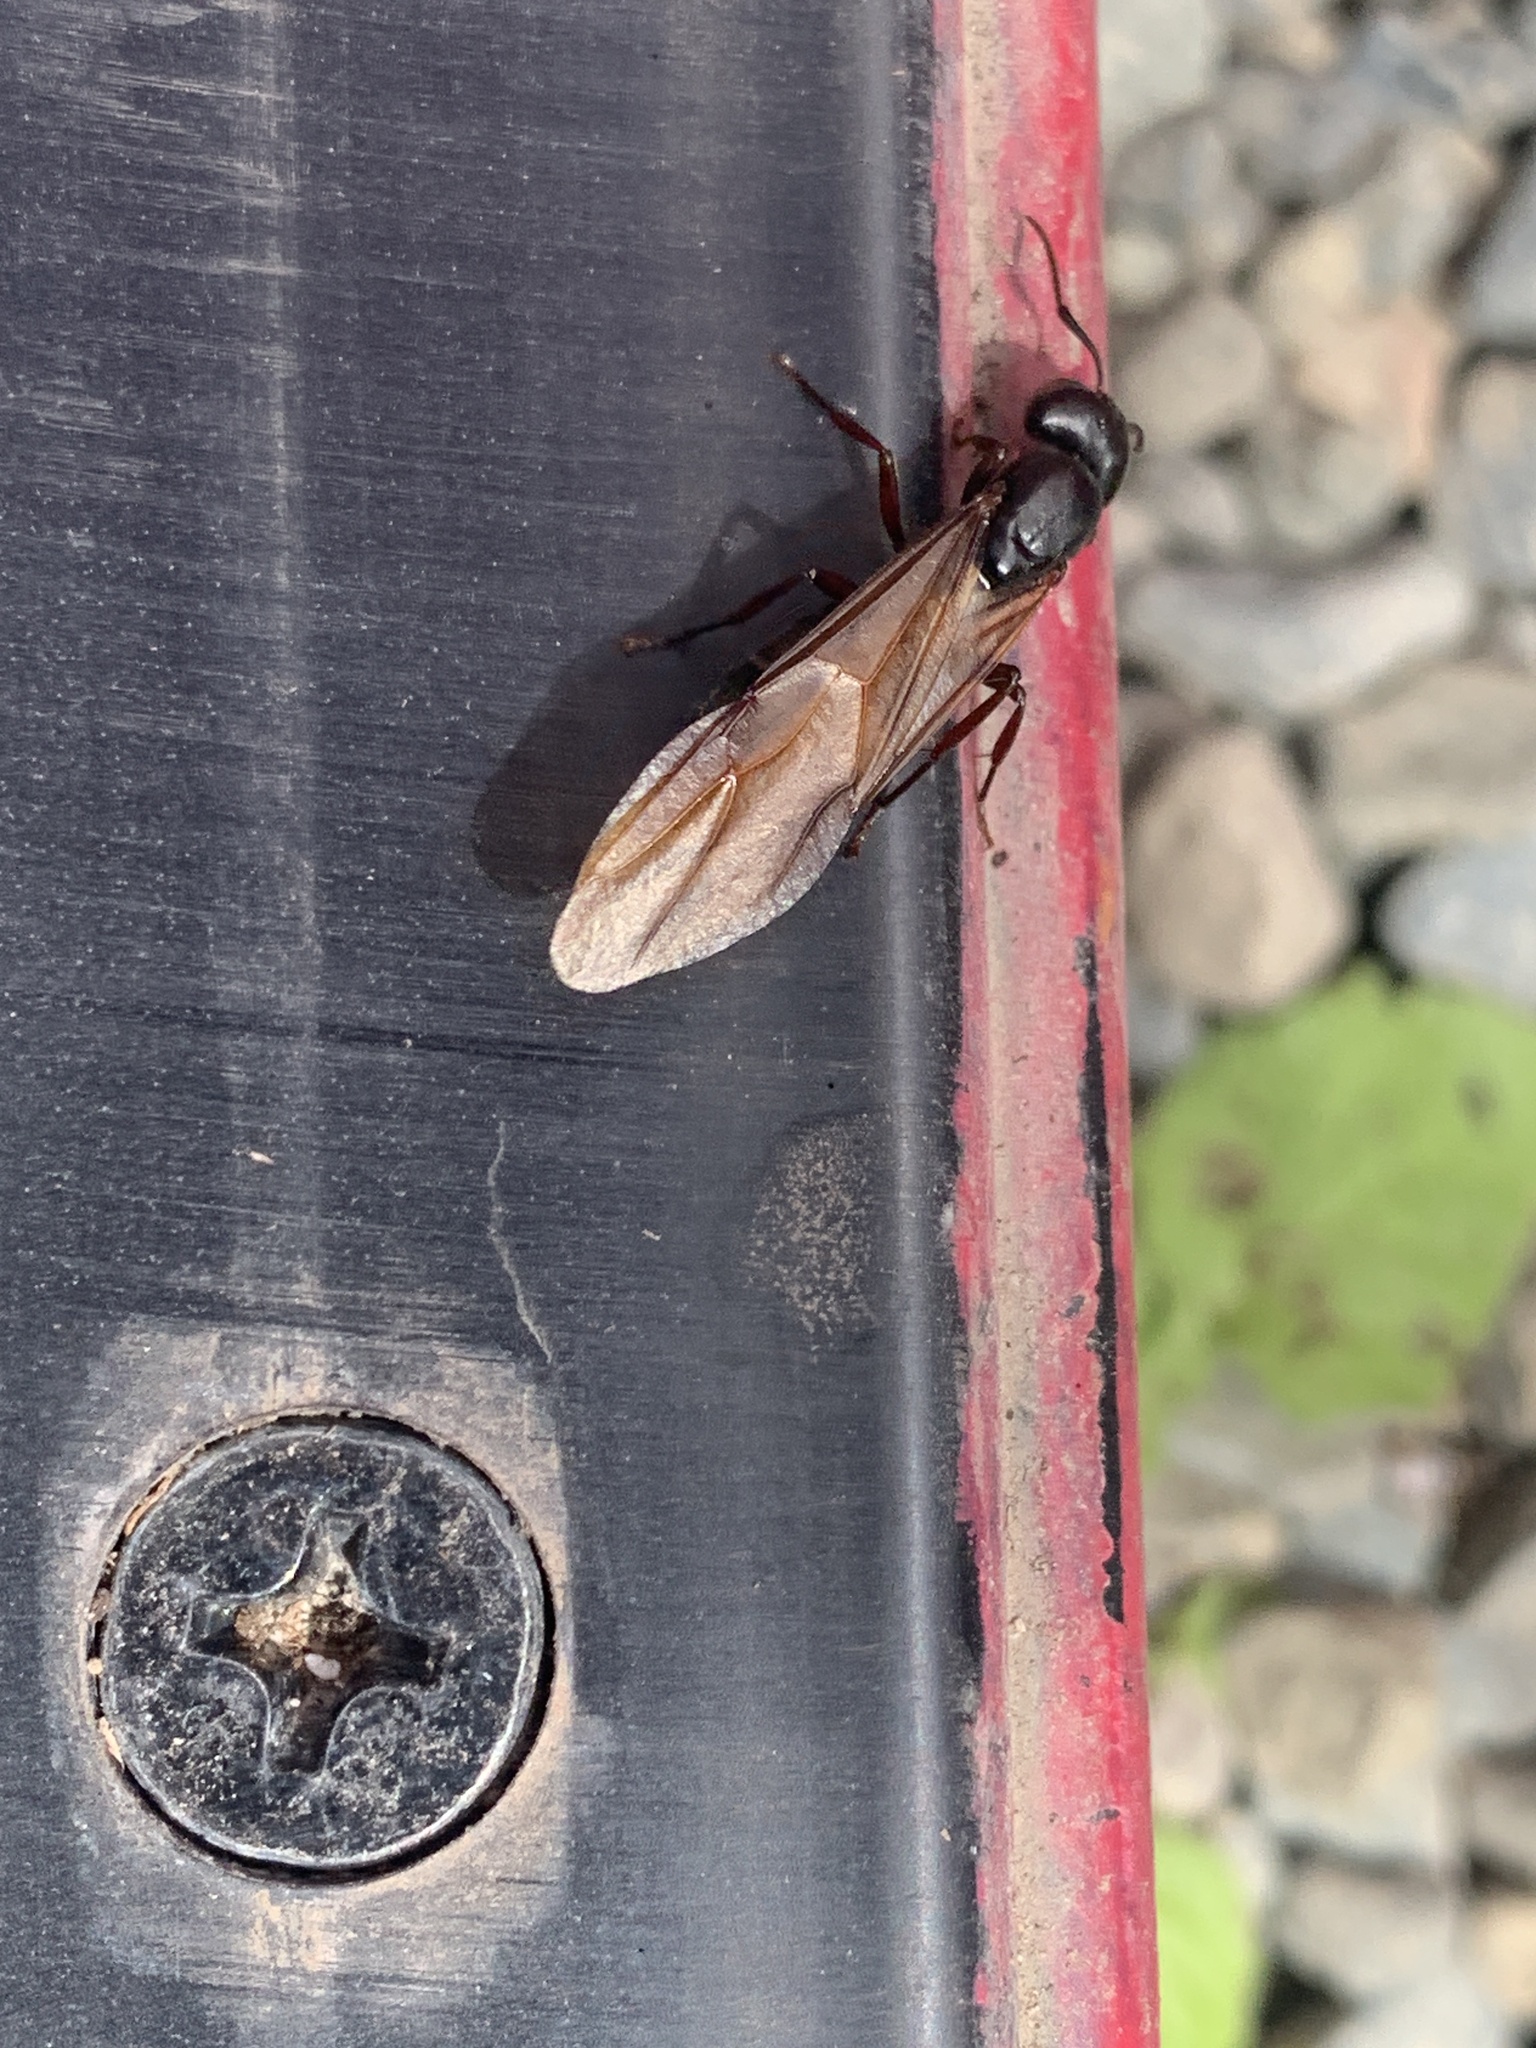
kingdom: Animalia
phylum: Arthropoda
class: Insecta
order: Hymenoptera
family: Formicidae
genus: Camponotus
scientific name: Camponotus novaeboracensis
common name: New york carpenter ant
